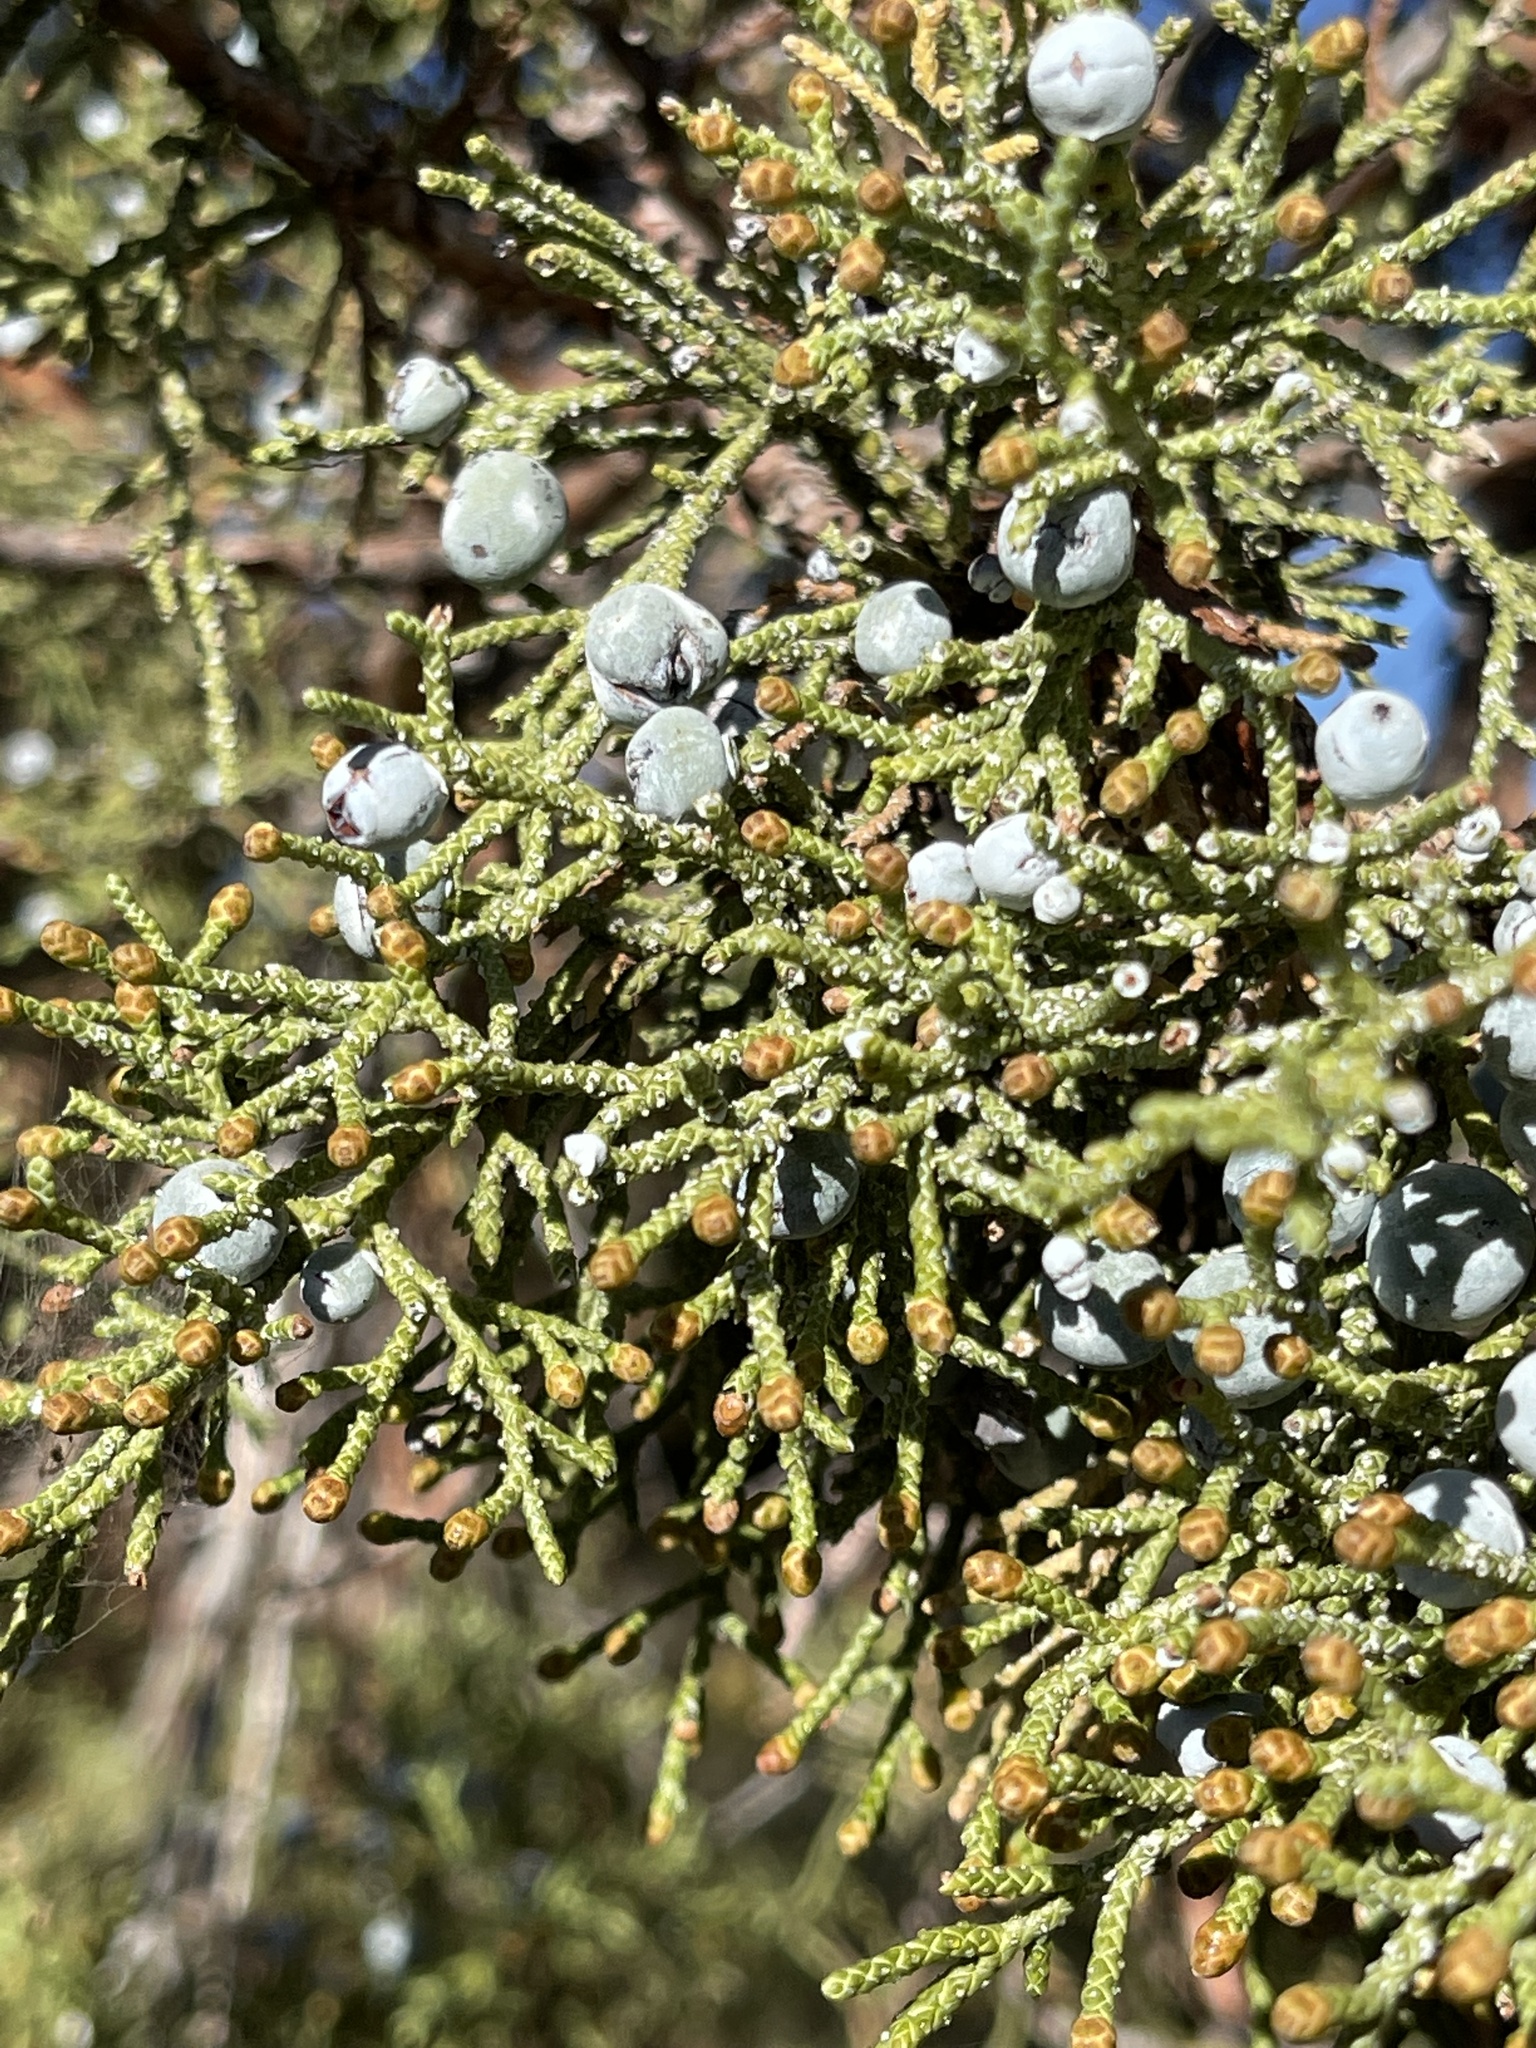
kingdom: Plantae
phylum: Tracheophyta
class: Pinopsida
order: Pinales
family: Cupressaceae
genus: Juniperus
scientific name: Juniperus occidentalis
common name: Western juniper
